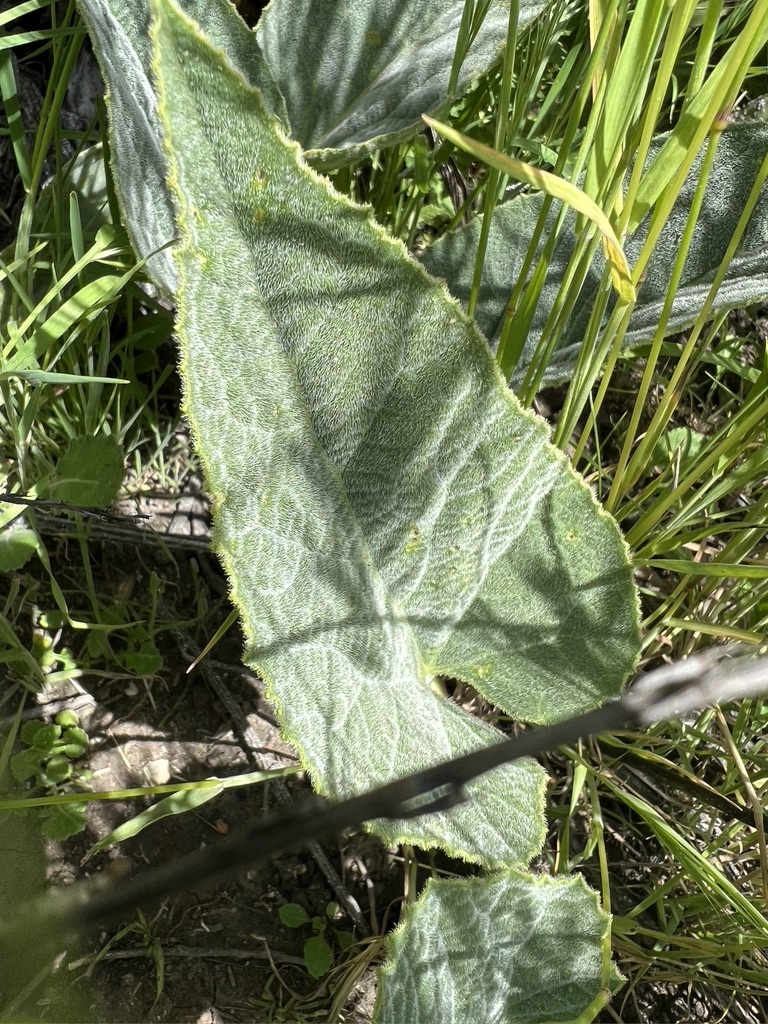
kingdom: Plantae
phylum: Tracheophyta
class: Magnoliopsida
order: Cucurbitales
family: Cucurbitaceae
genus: Cucurbita
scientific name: Cucurbita foetidissima
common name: Buffalo gourd
